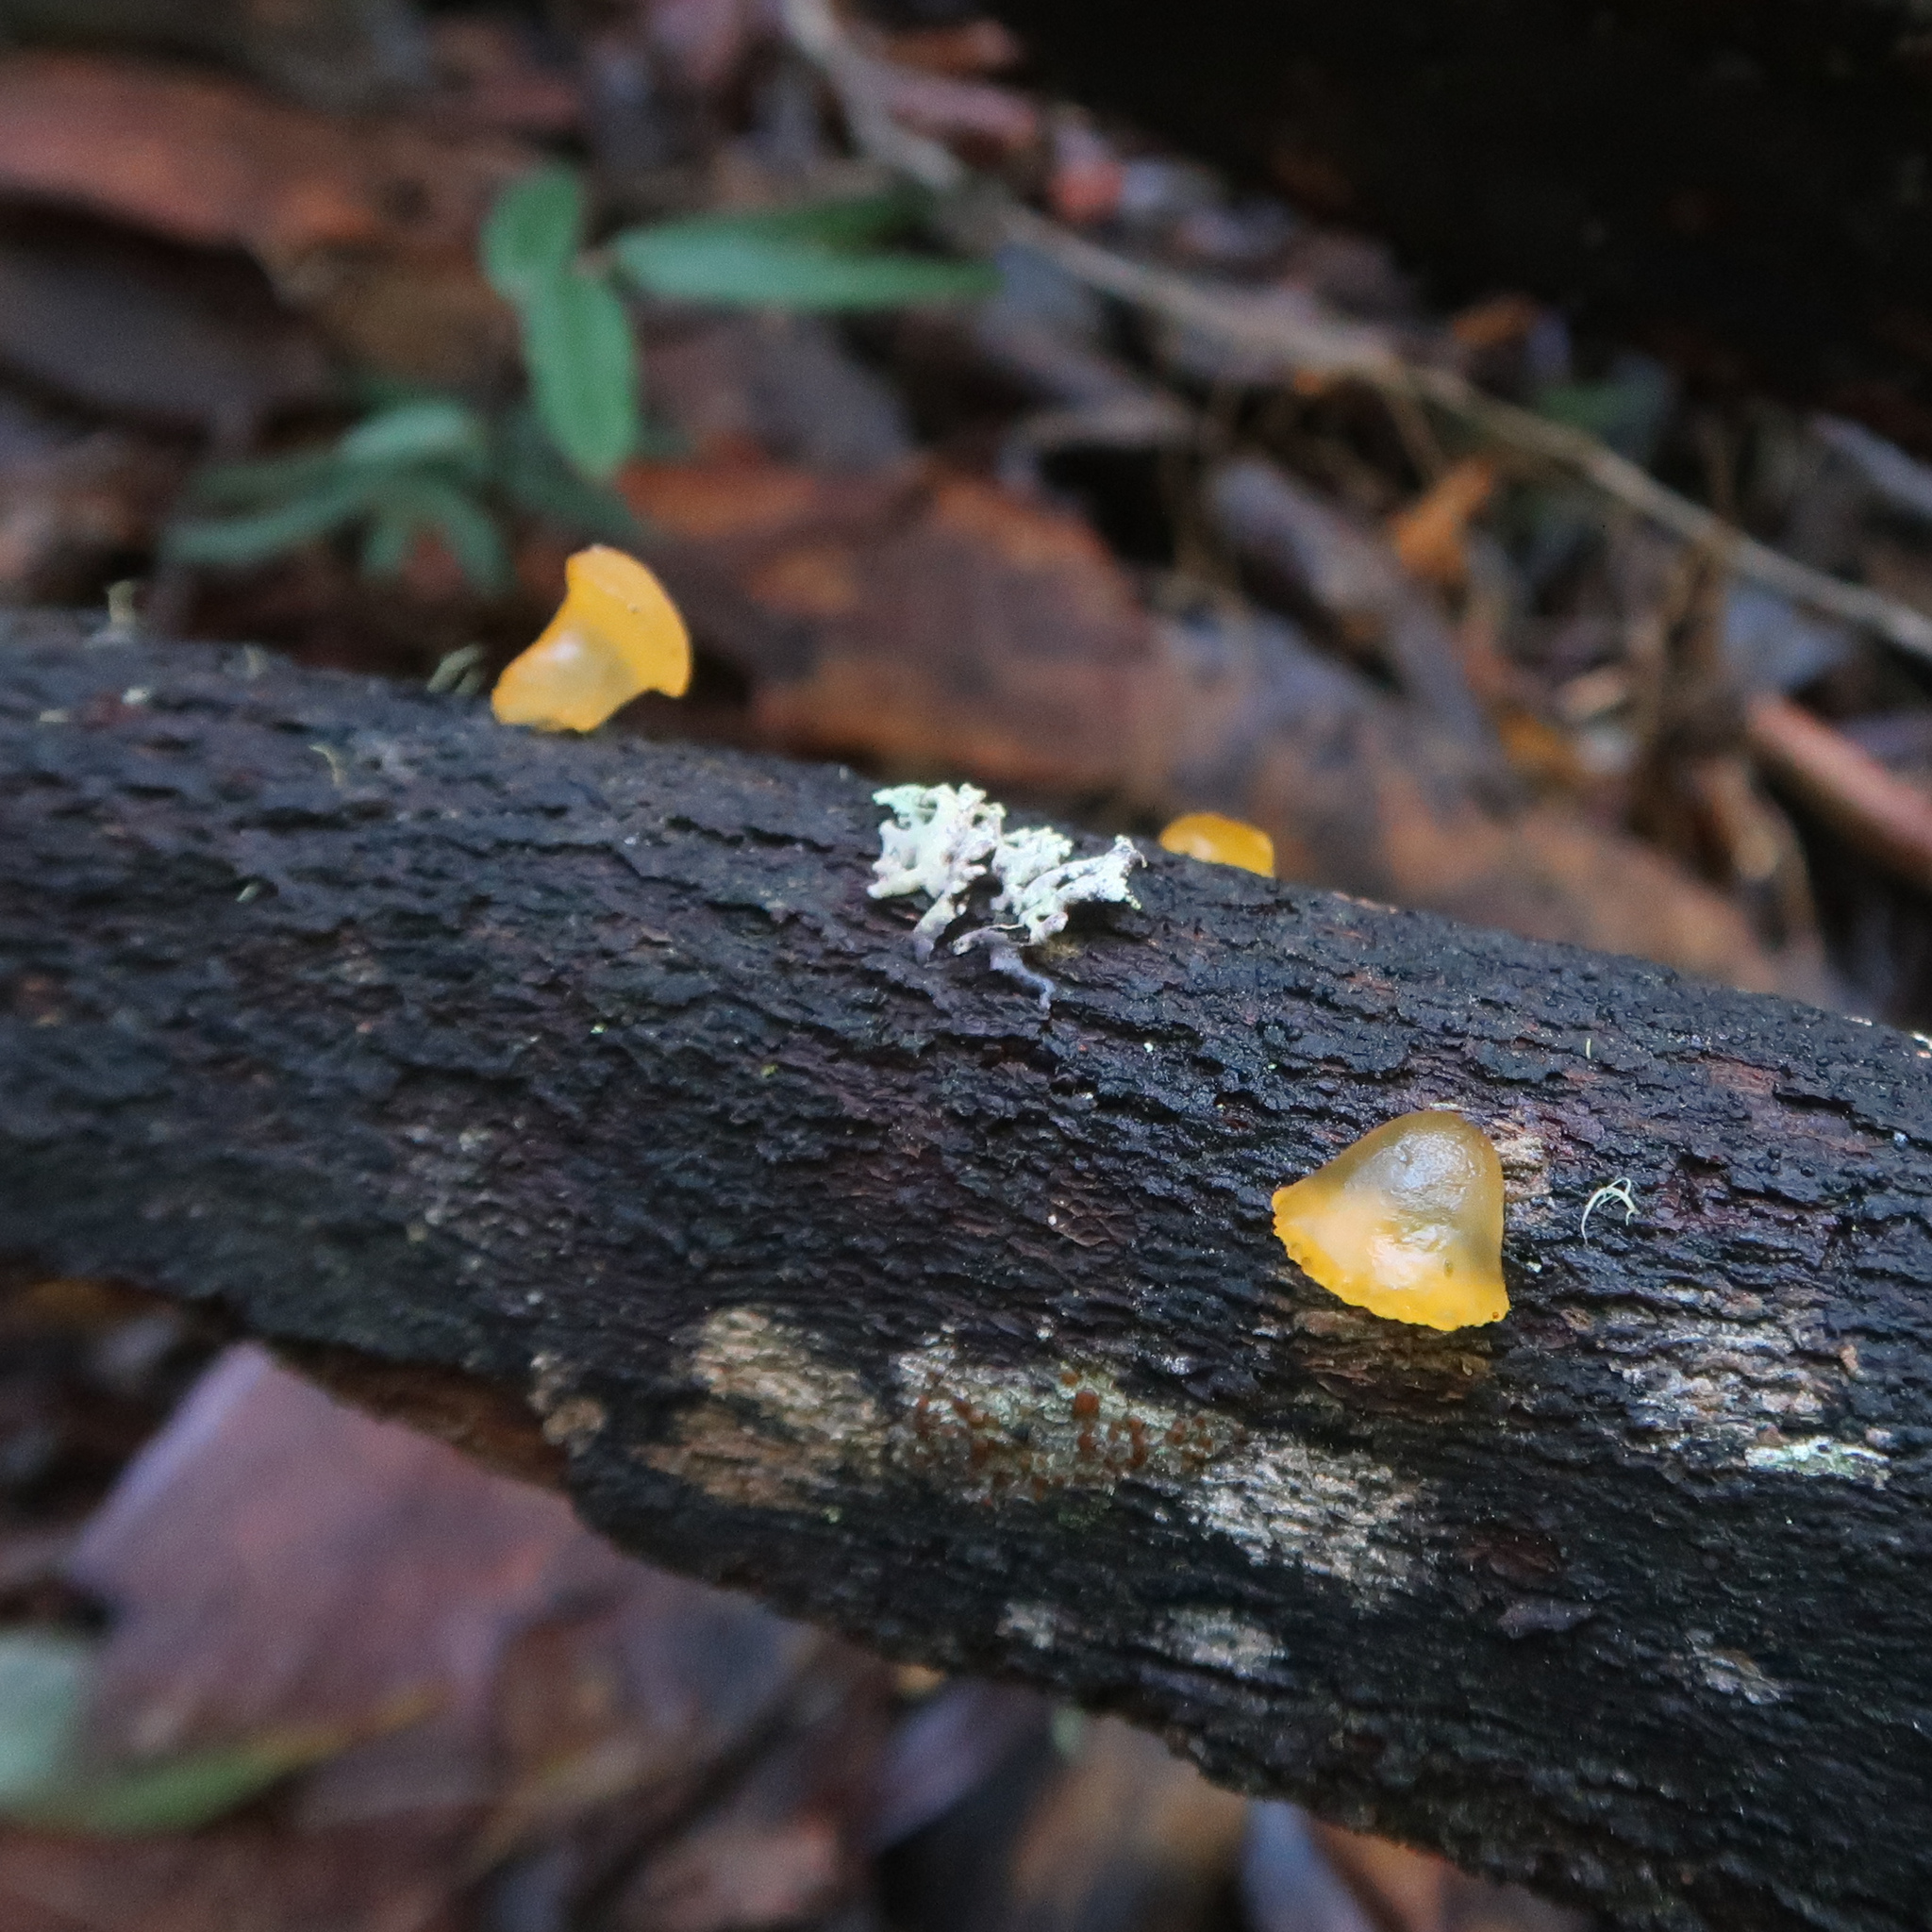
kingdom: Fungi
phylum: Basidiomycota
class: Dacrymycetes
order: Dacrymycetales
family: Dacrymycetaceae
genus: Heterotextus
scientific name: Heterotextus peziziformis
